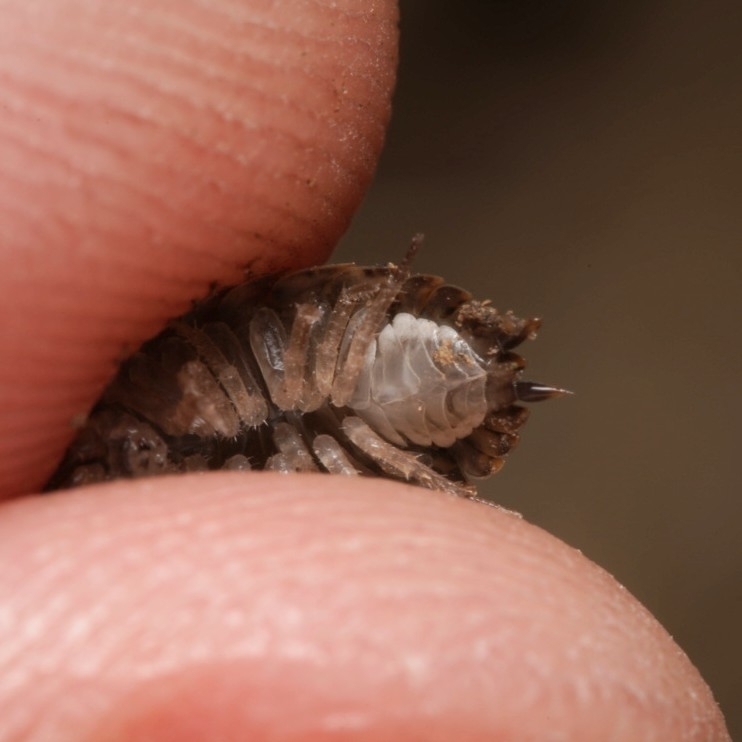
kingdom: Animalia
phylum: Arthropoda
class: Malacostraca
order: Isopoda
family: Trachelipodidae
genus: Trachelipus
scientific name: Trachelipus rathkii
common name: Isopod
